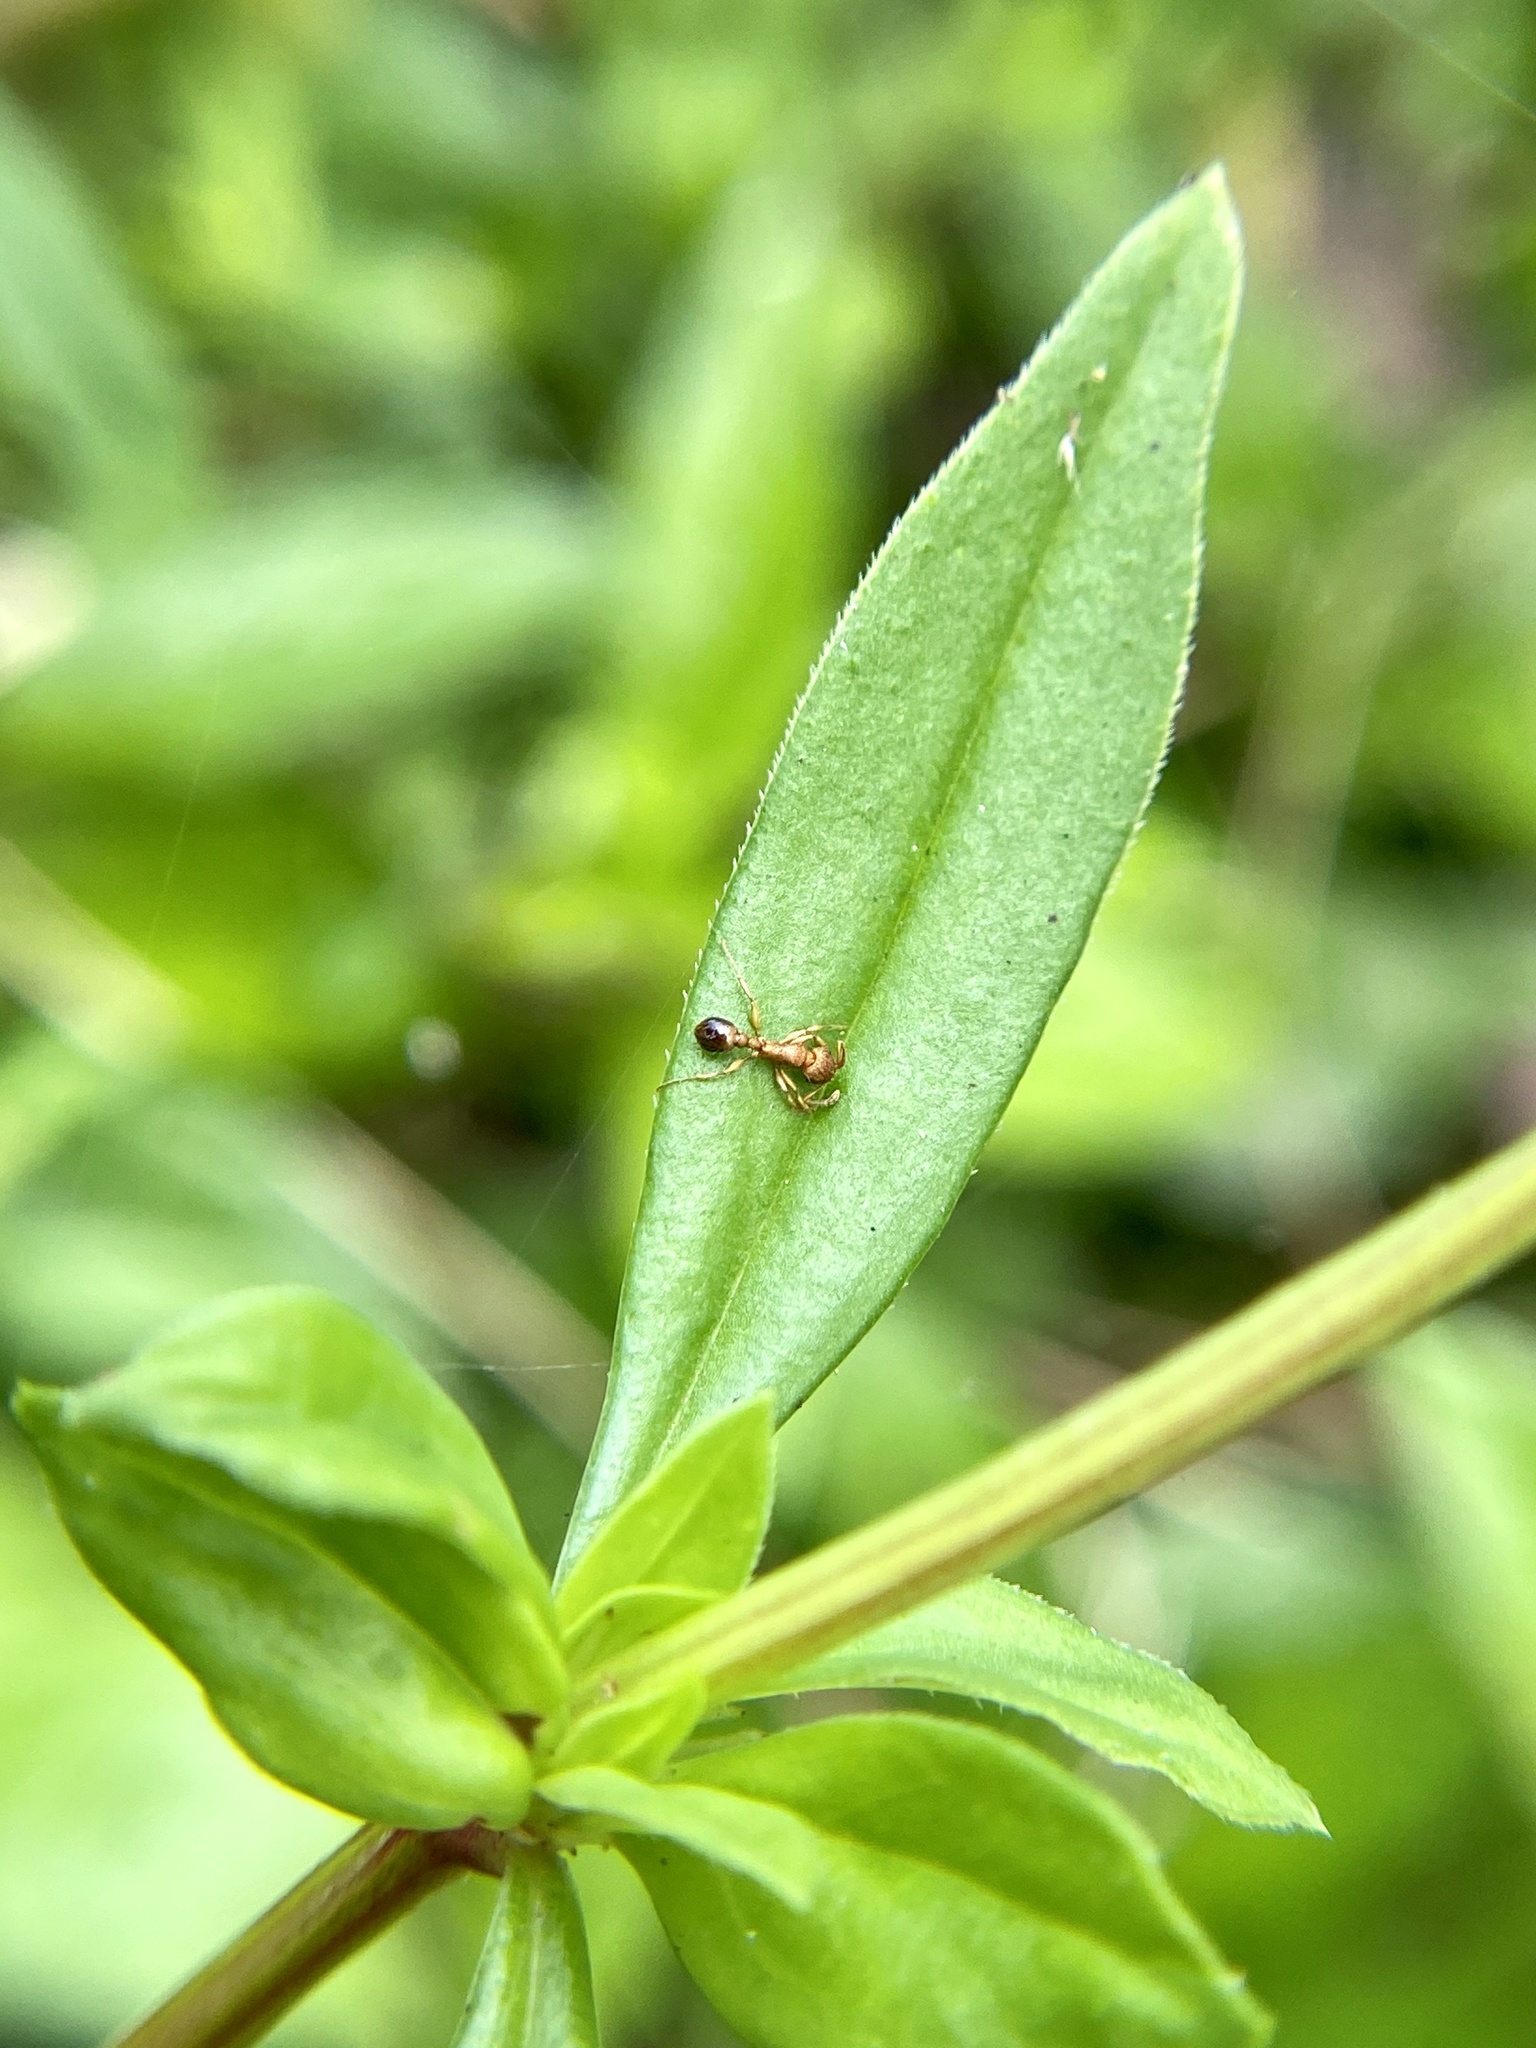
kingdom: Animalia
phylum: Arthropoda
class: Insecta
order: Hymenoptera
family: Formicidae
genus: Tetramorium
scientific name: Tetramorium bicarinatum
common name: Guinea ant
